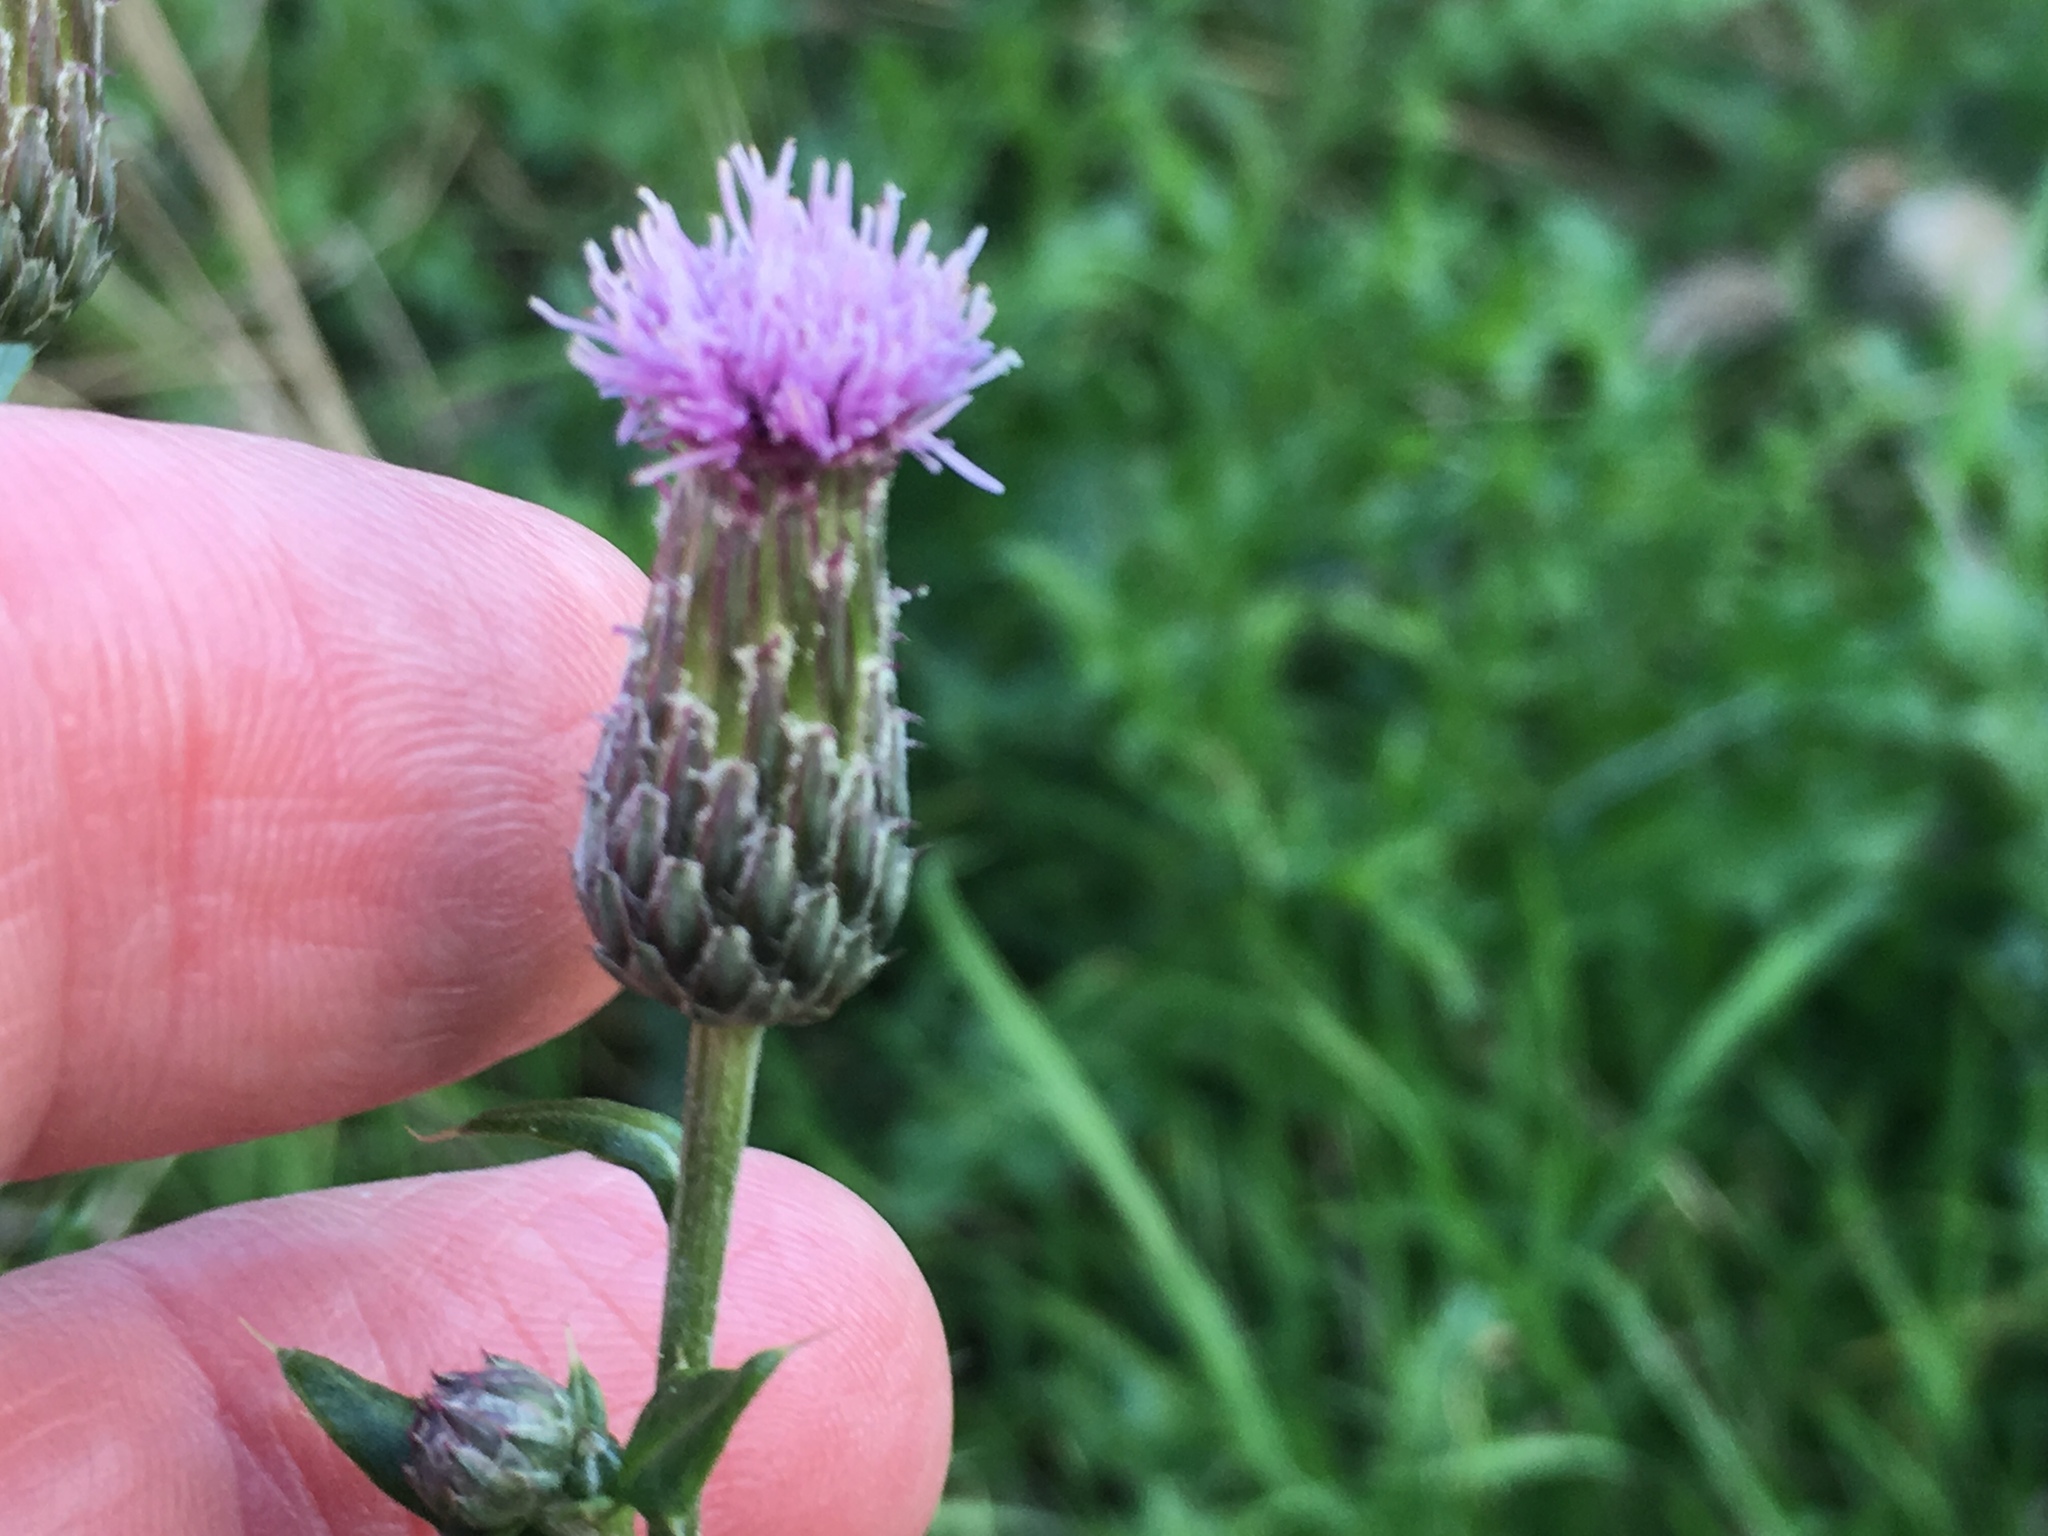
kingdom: Plantae
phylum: Tracheophyta
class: Magnoliopsida
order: Asterales
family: Asteraceae
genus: Cirsium
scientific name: Cirsium arvense
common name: Creeping thistle
